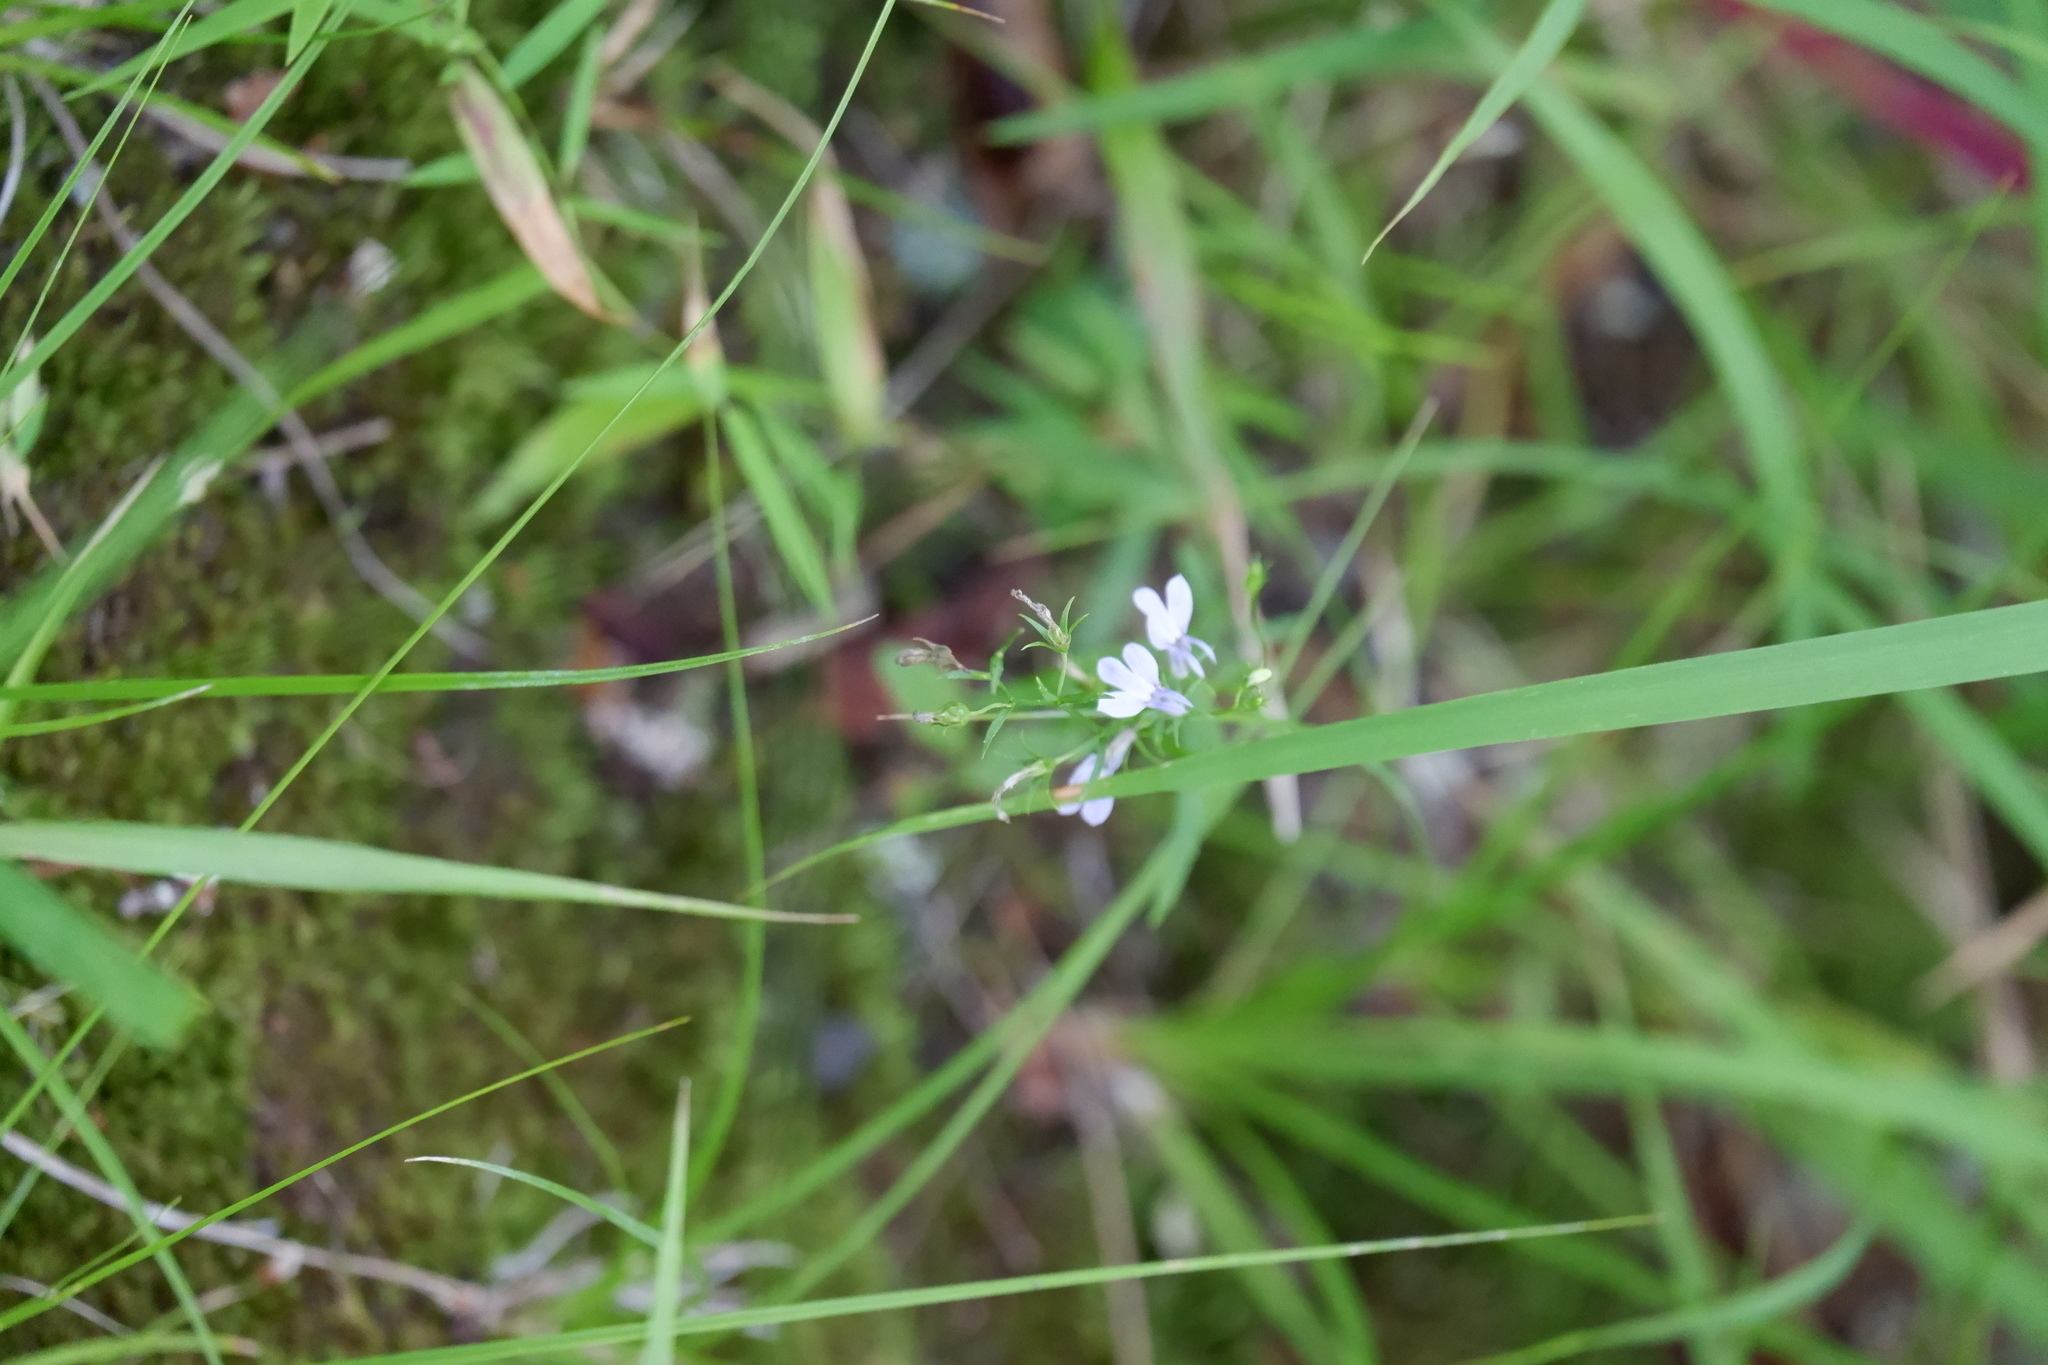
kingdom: Plantae
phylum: Tracheophyta
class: Magnoliopsida
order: Asterales
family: Campanulaceae
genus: Lobelia
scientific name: Lobelia nuttallii
